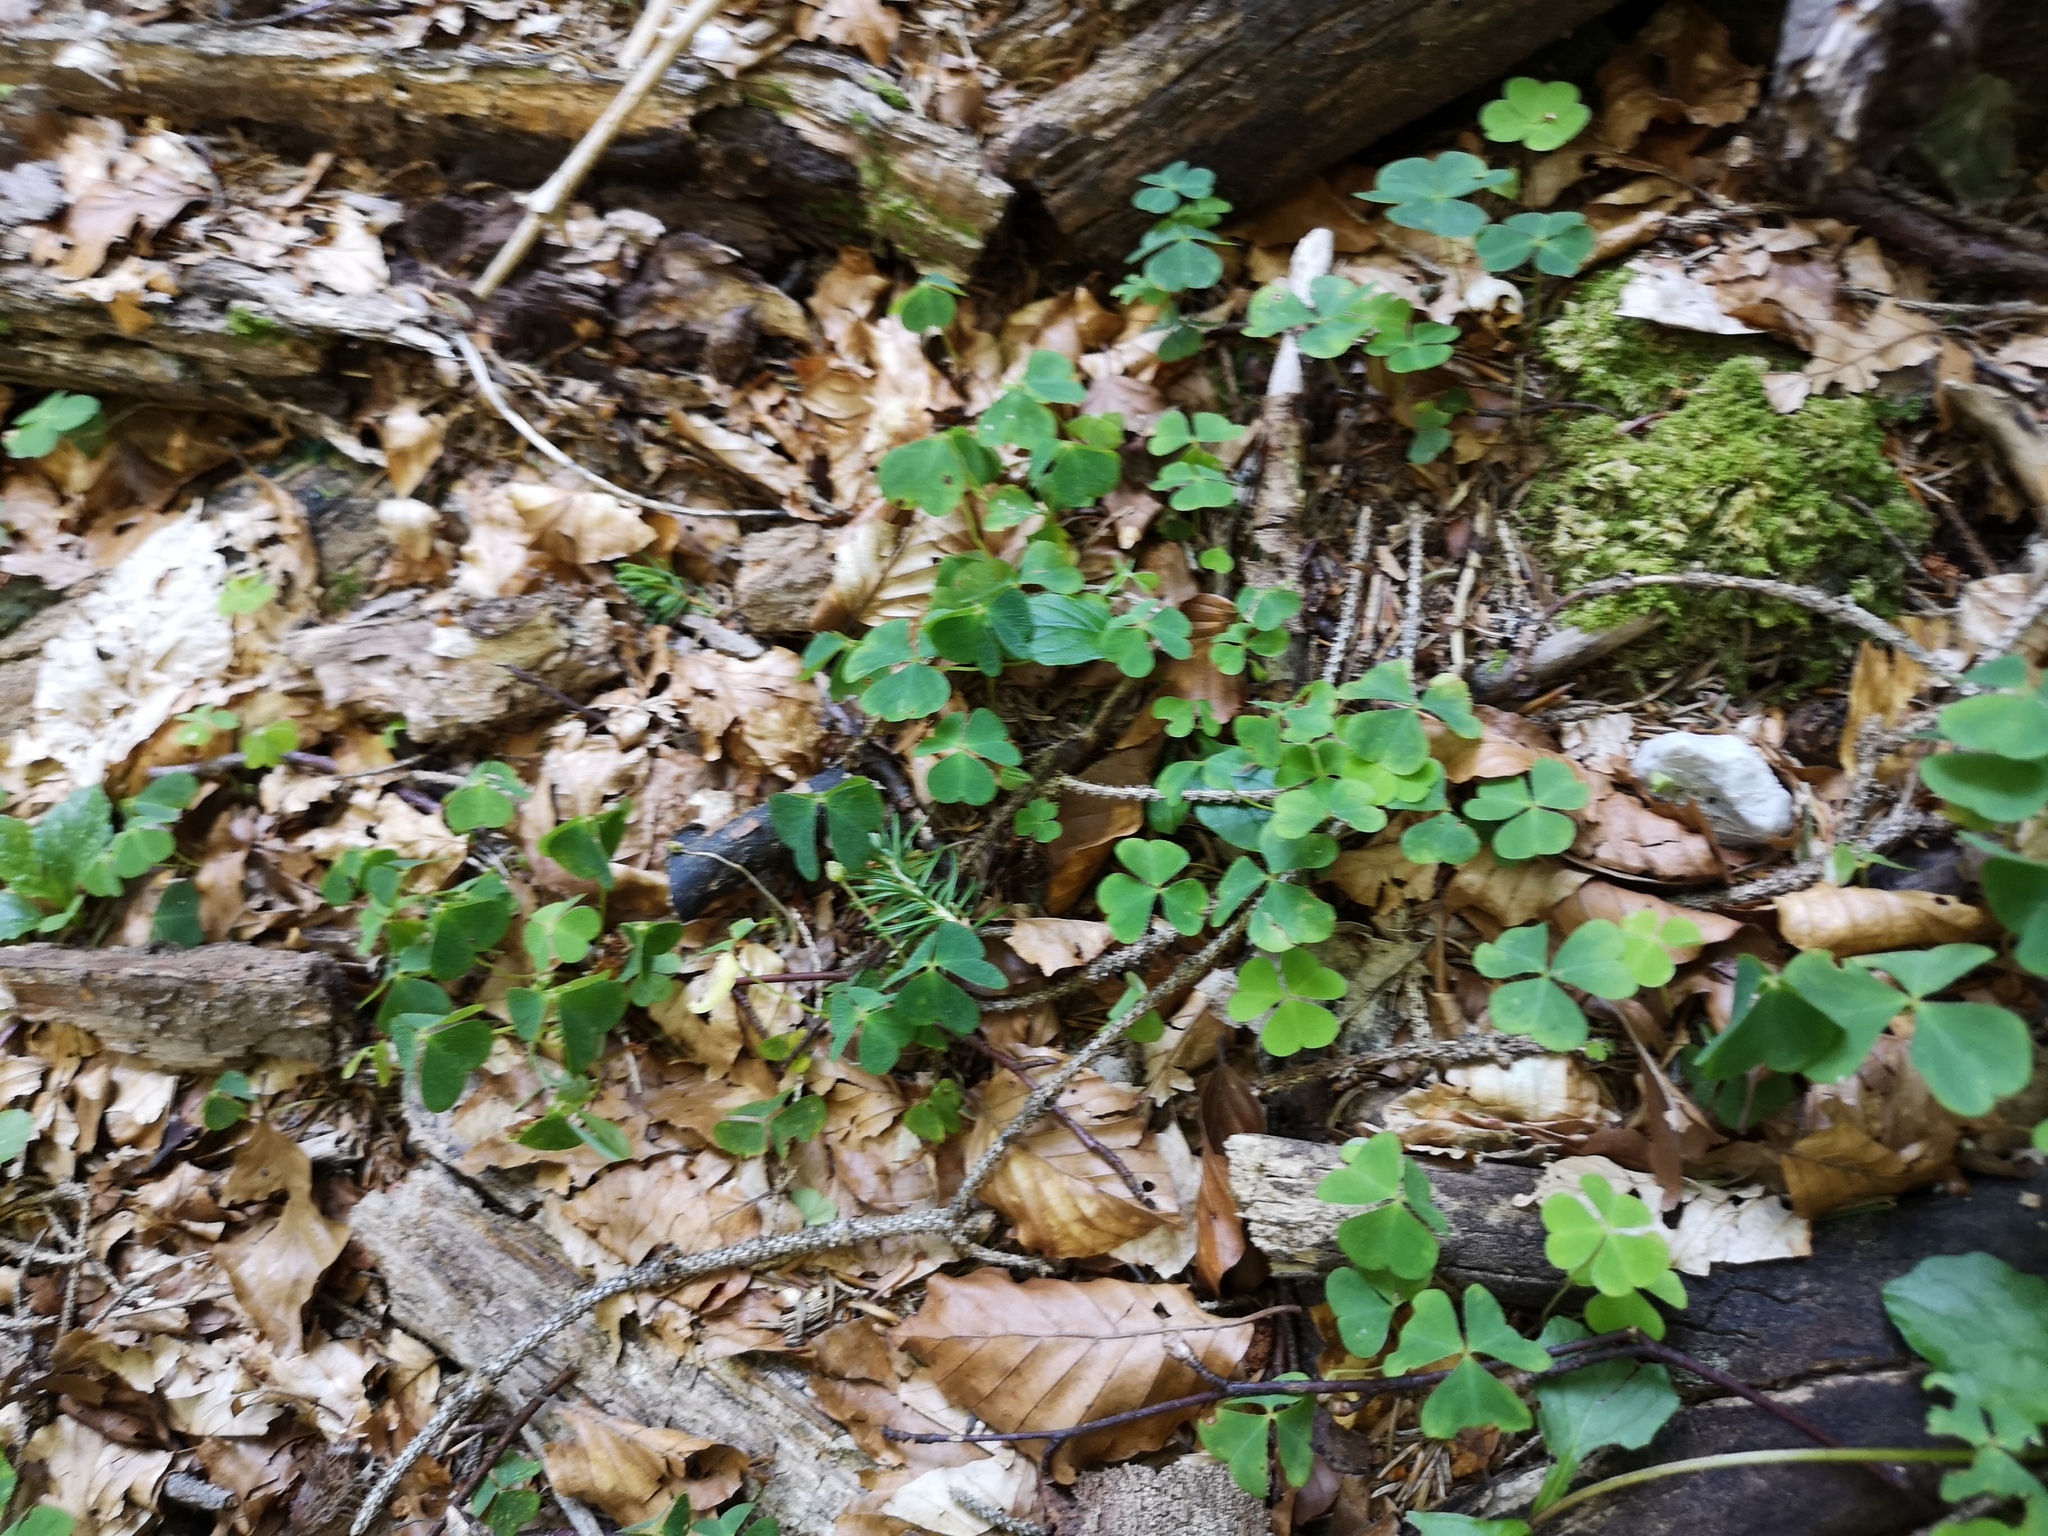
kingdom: Plantae
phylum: Tracheophyta
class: Magnoliopsida
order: Oxalidales
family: Oxalidaceae
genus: Oxalis
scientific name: Oxalis acetosella
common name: Wood-sorrel
